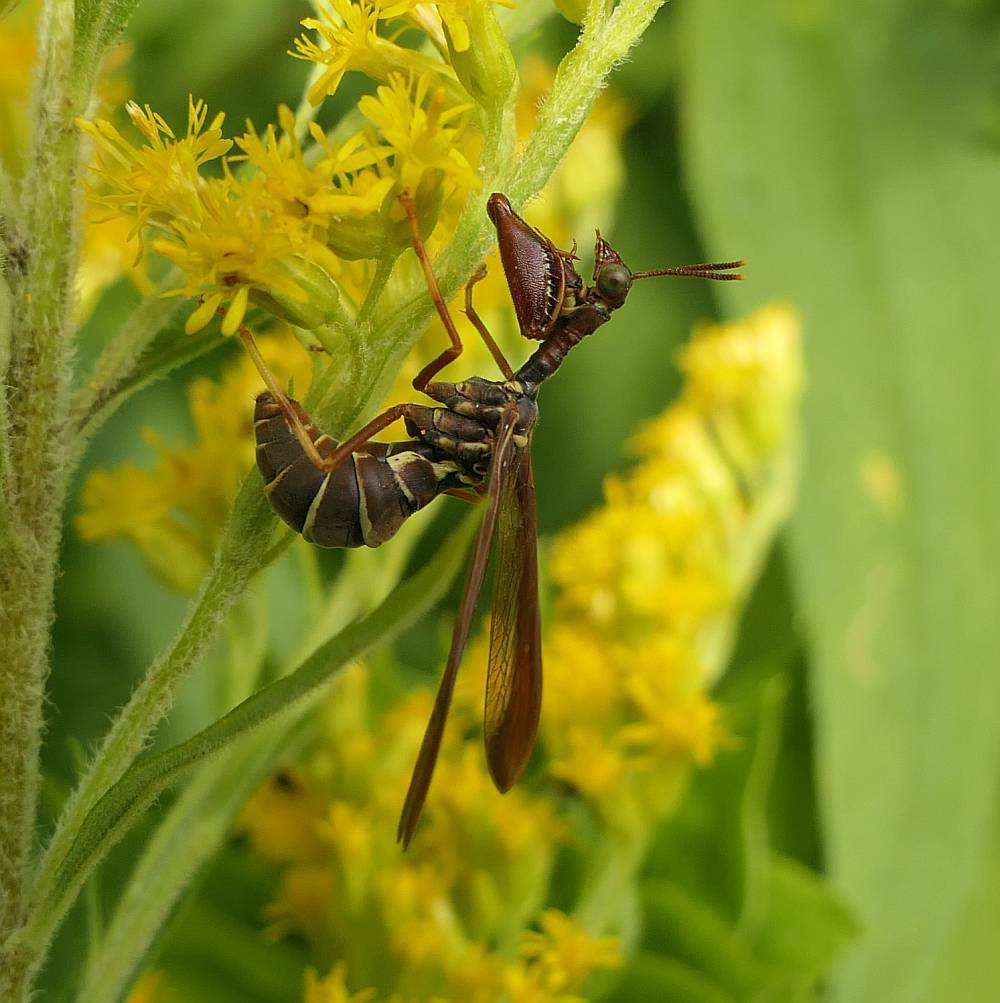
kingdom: Animalia
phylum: Arthropoda
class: Insecta
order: Neuroptera
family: Mantispidae
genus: Climaciella
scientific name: Climaciella brunnea
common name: Brown wasp mantidfly
